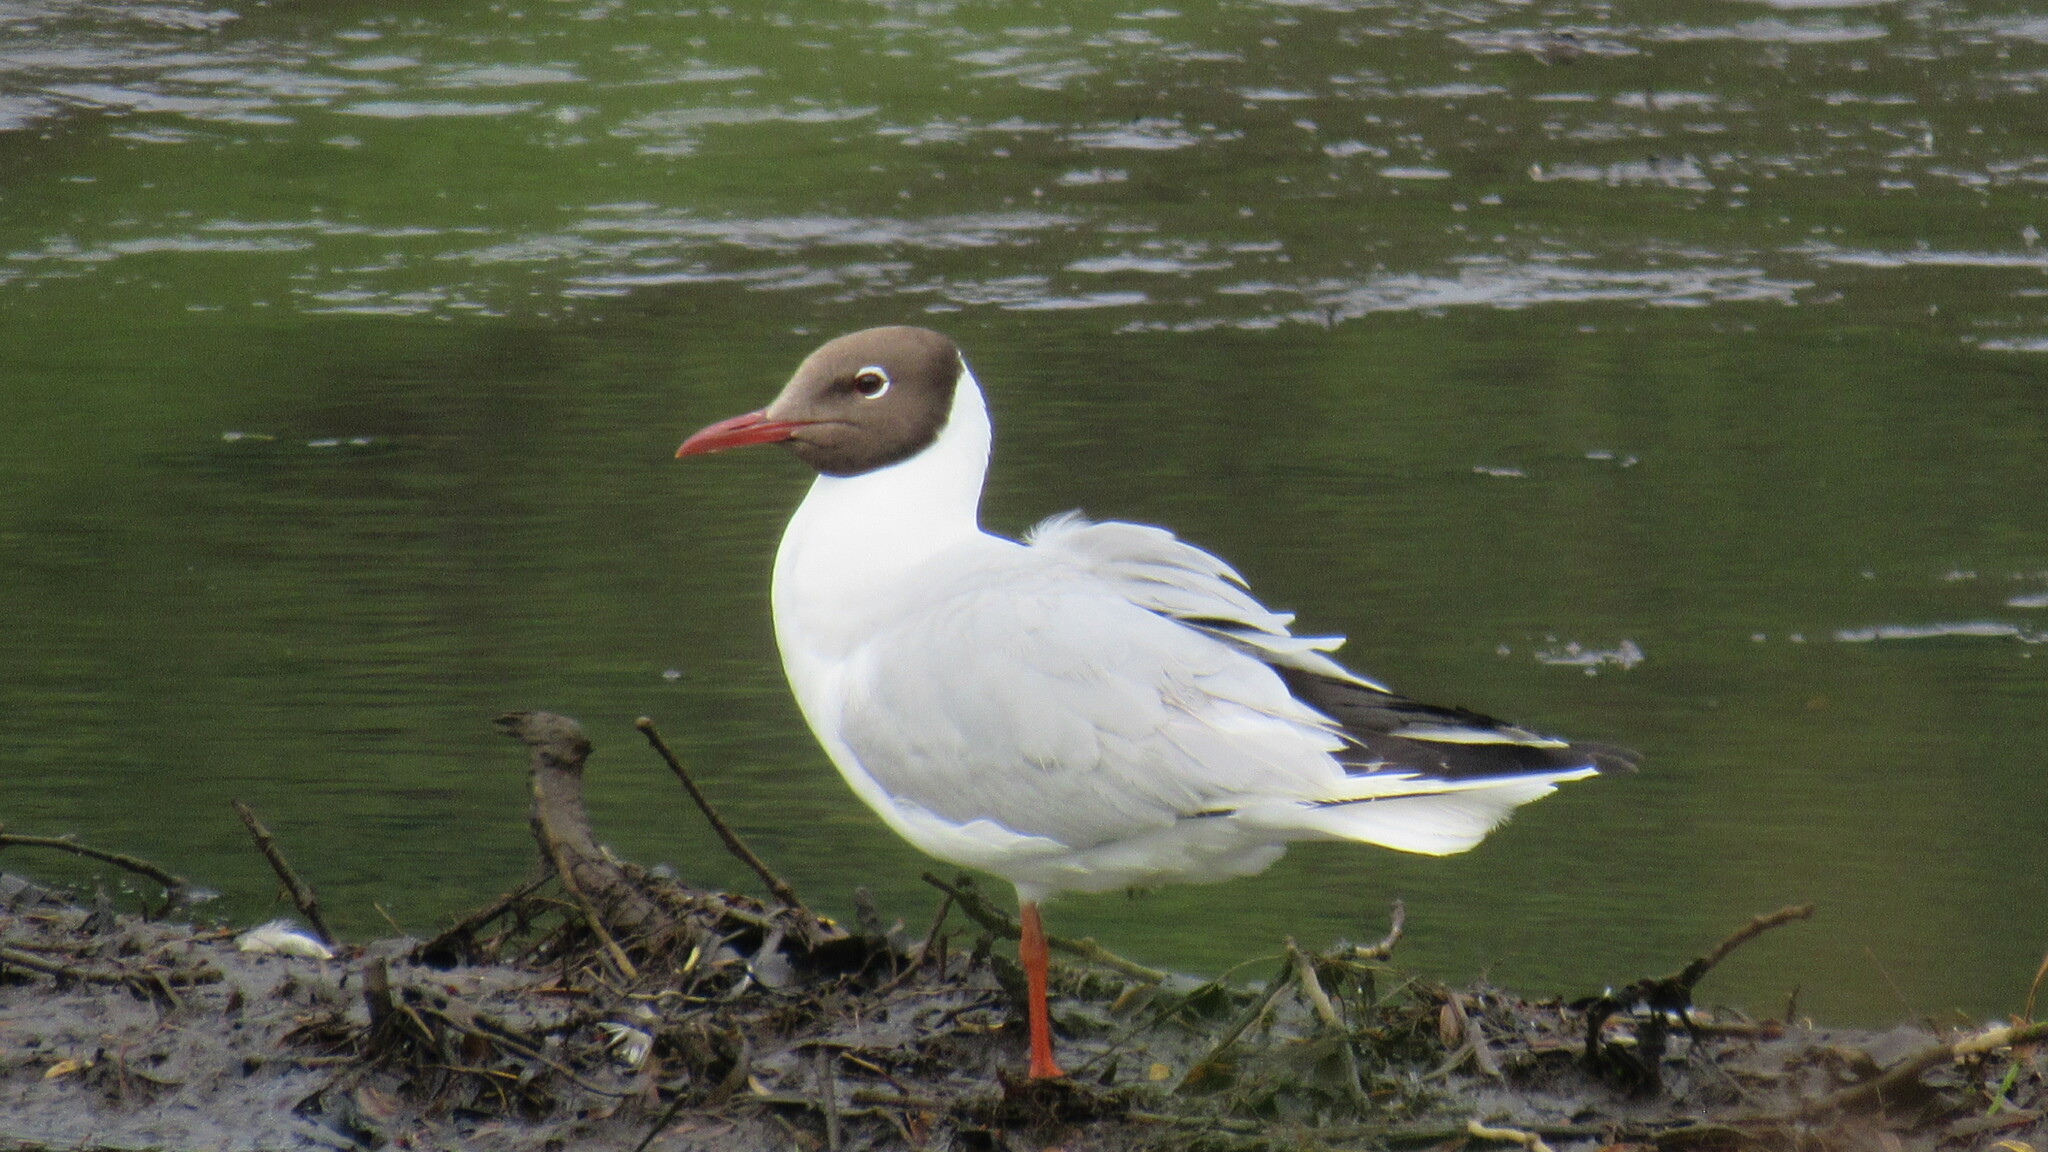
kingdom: Animalia
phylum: Chordata
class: Aves
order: Charadriiformes
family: Laridae
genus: Chroicocephalus
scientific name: Chroicocephalus ridibundus
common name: Black-headed gull
